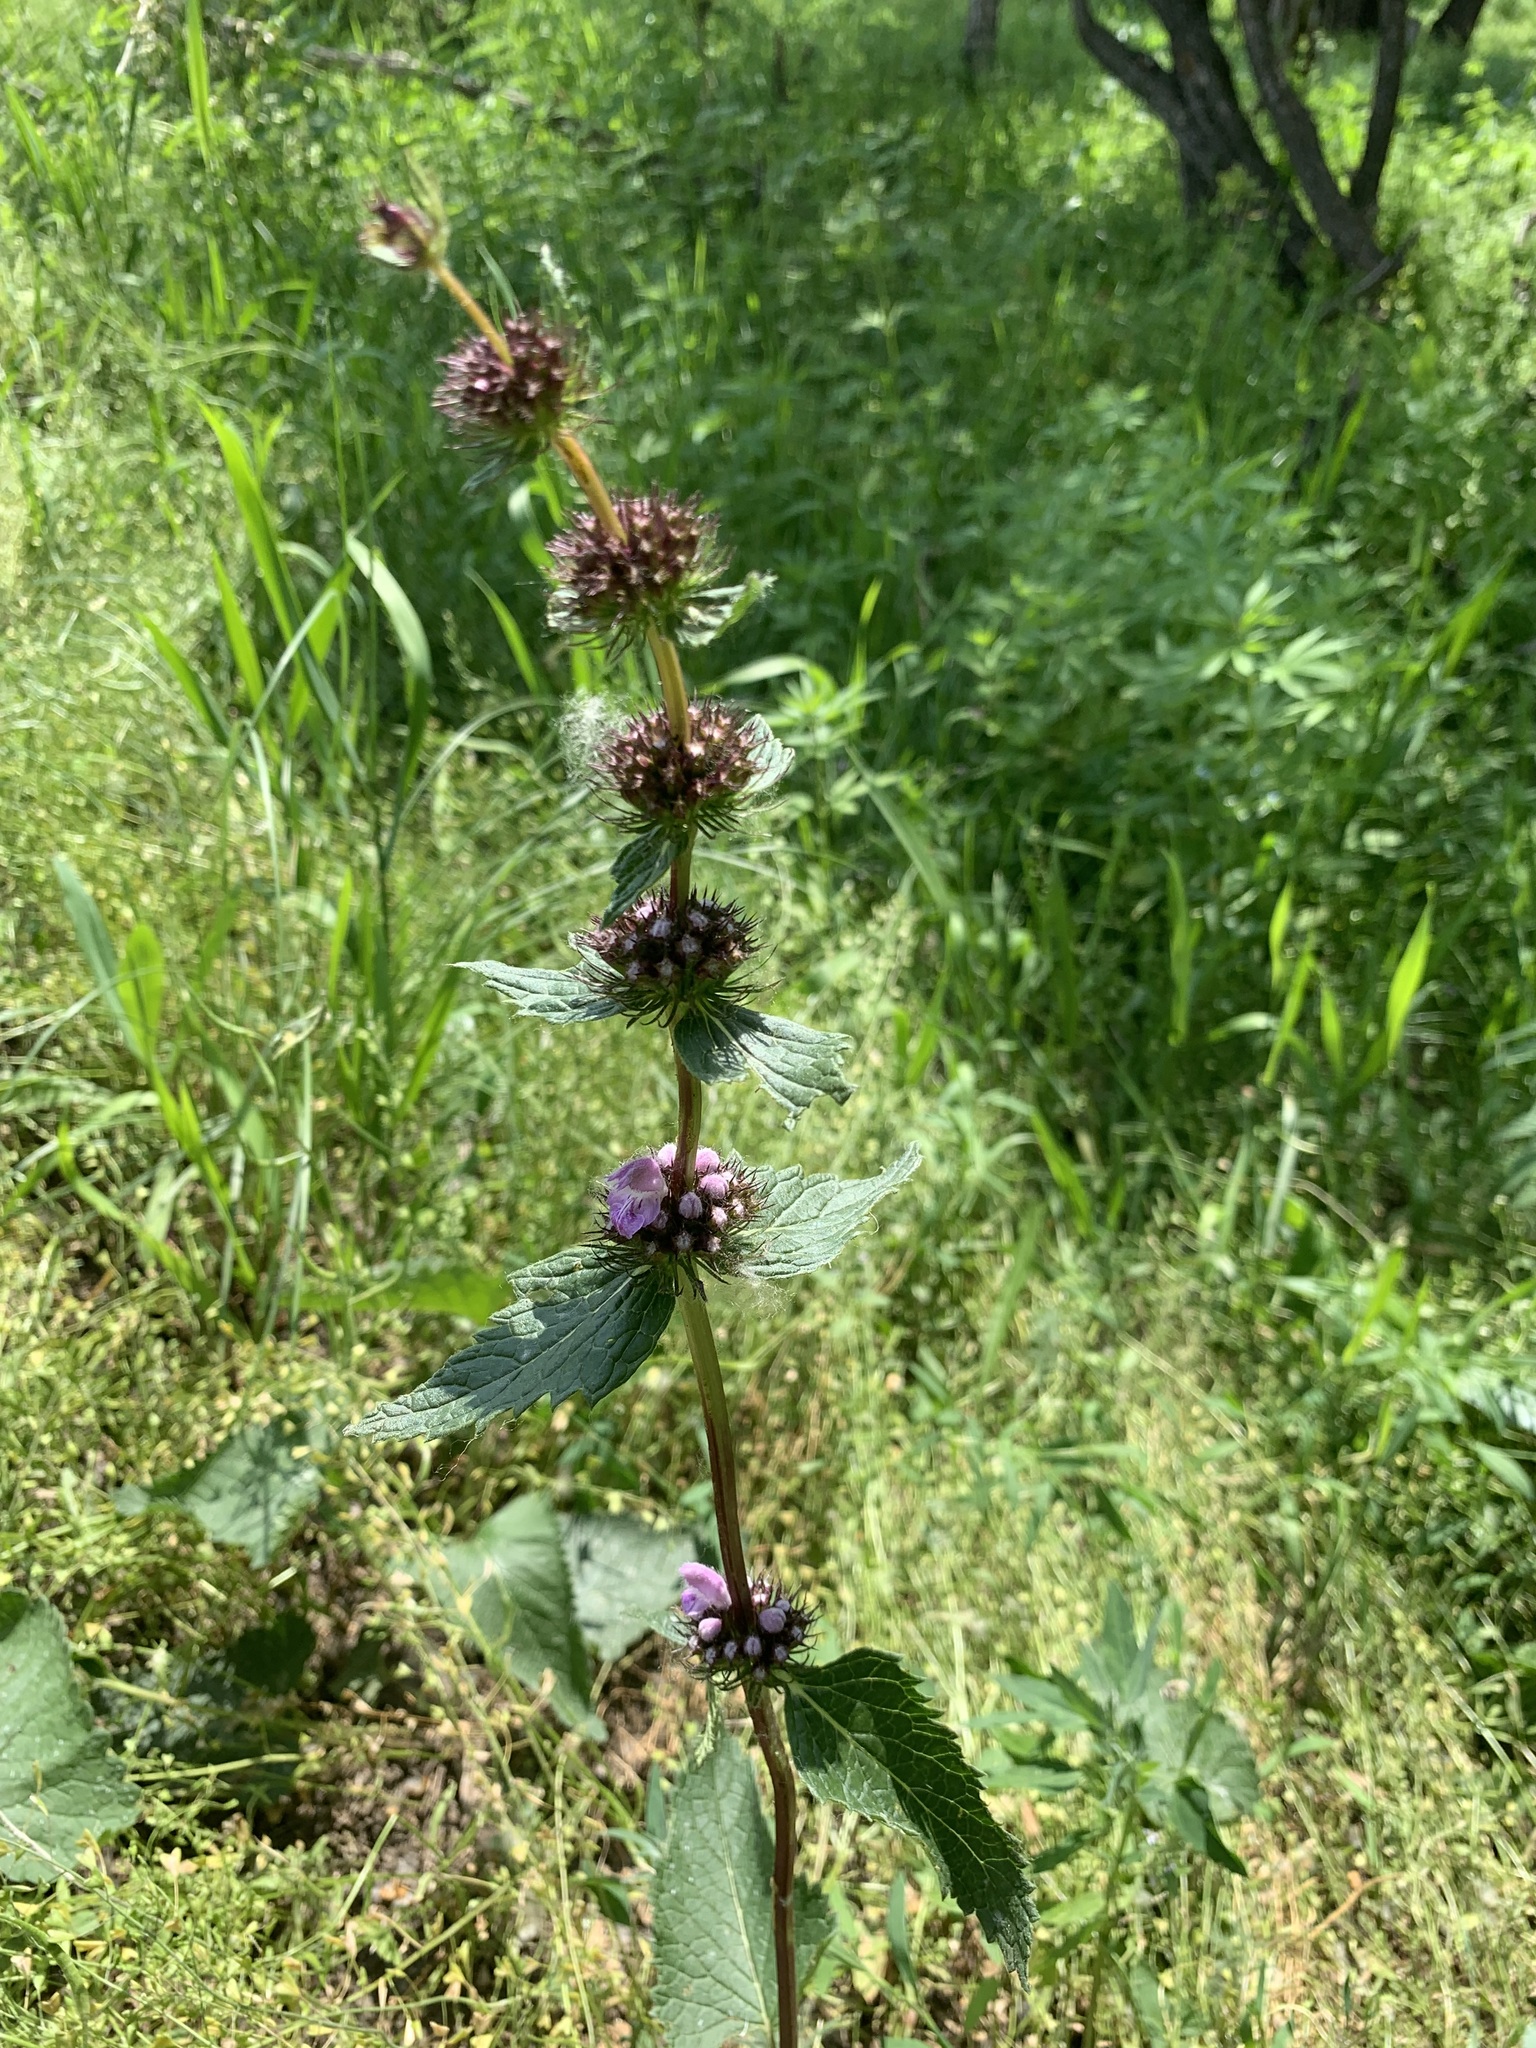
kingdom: Plantae
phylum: Tracheophyta
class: Magnoliopsida
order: Lamiales
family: Lamiaceae
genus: Phlomoides
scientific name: Phlomoides tuberosa
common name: Tuberous jerusalem sage
